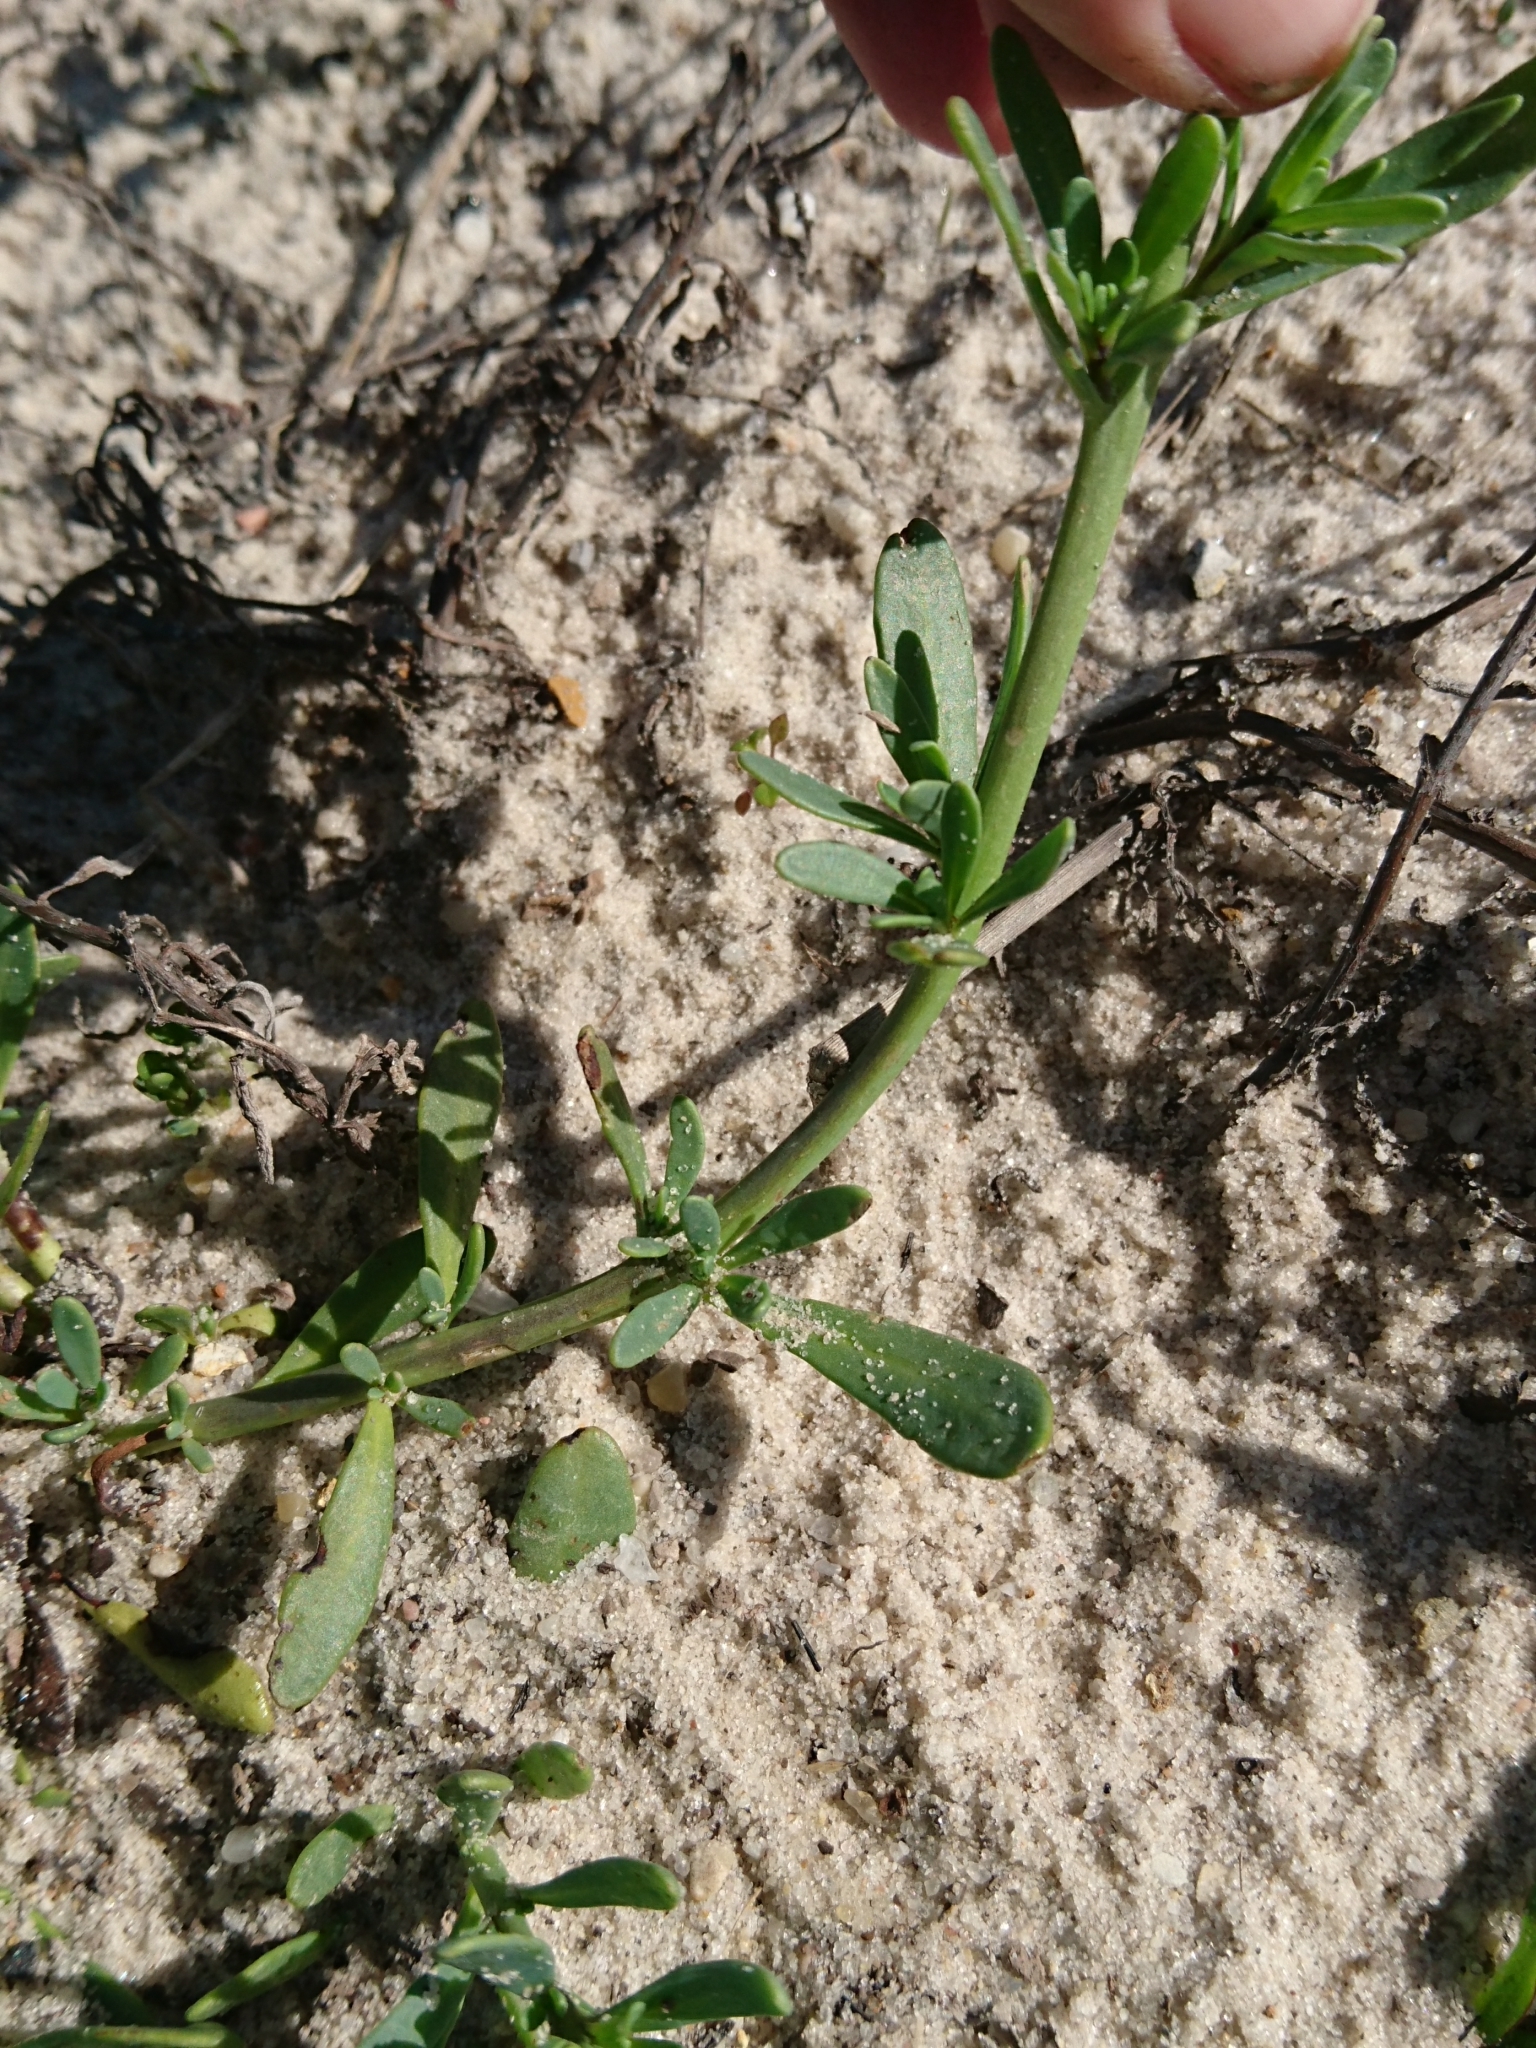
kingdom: Plantae
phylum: Tracheophyta
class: Magnoliopsida
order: Boraginales
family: Heliotropiaceae
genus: Heliotropium
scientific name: Heliotropium curassavicum
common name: Seaside heliotrope
